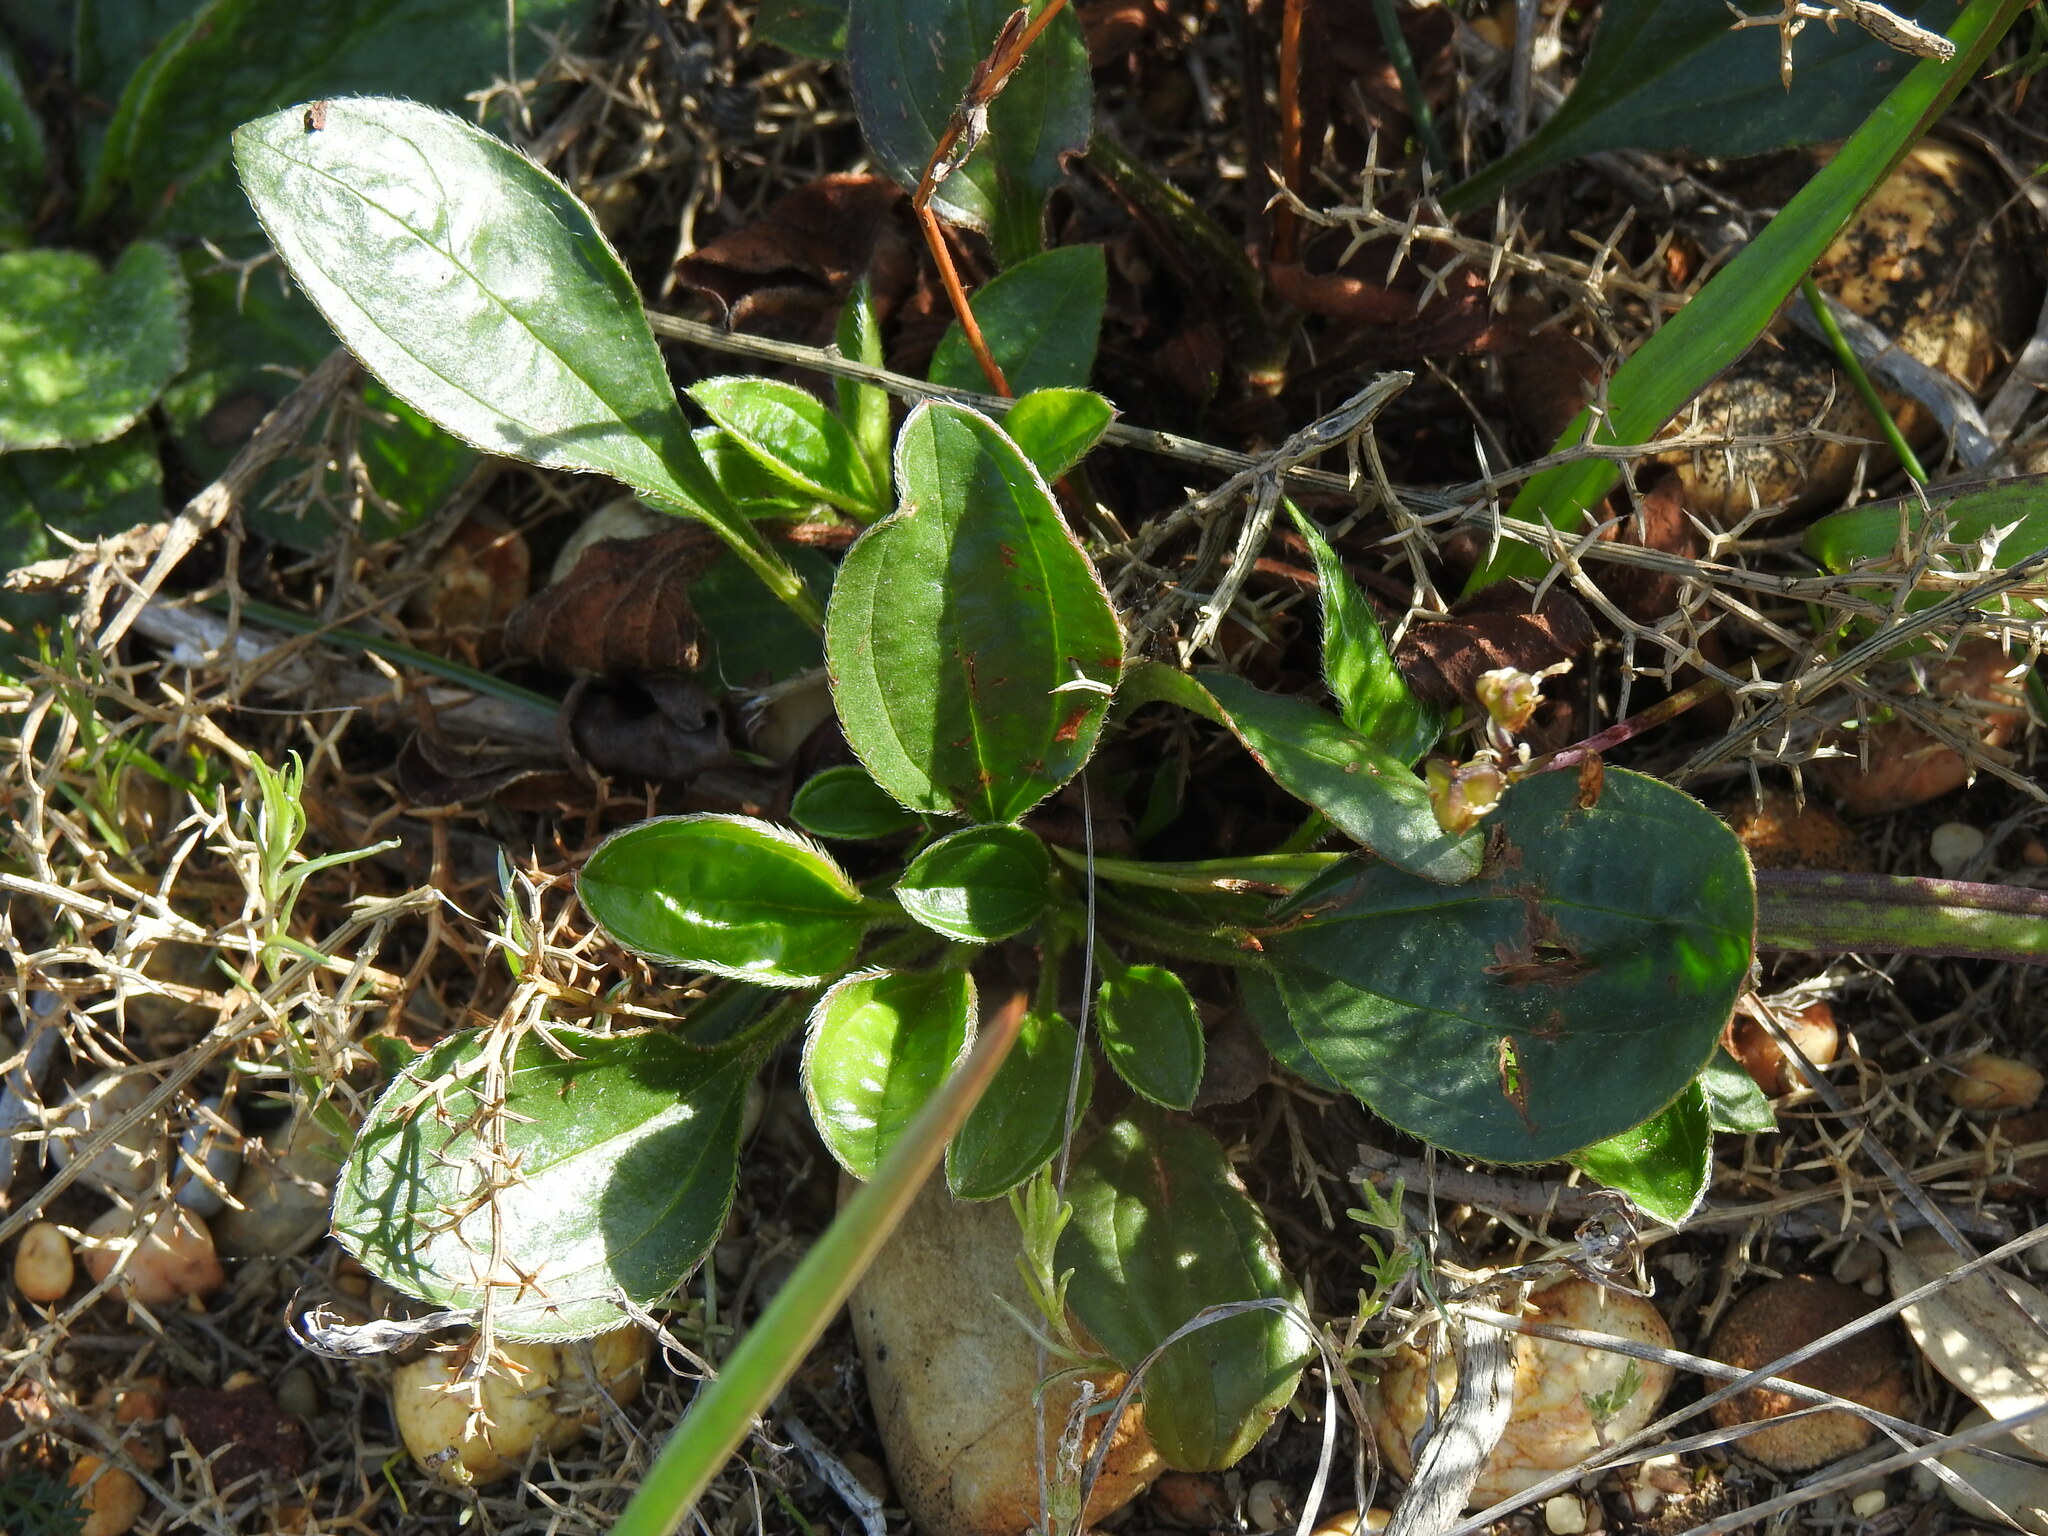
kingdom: Plantae
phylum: Tracheophyta
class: Magnoliopsida
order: Malvales
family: Cistaceae
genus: Tuberaria
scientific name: Tuberaria globulariifolia
